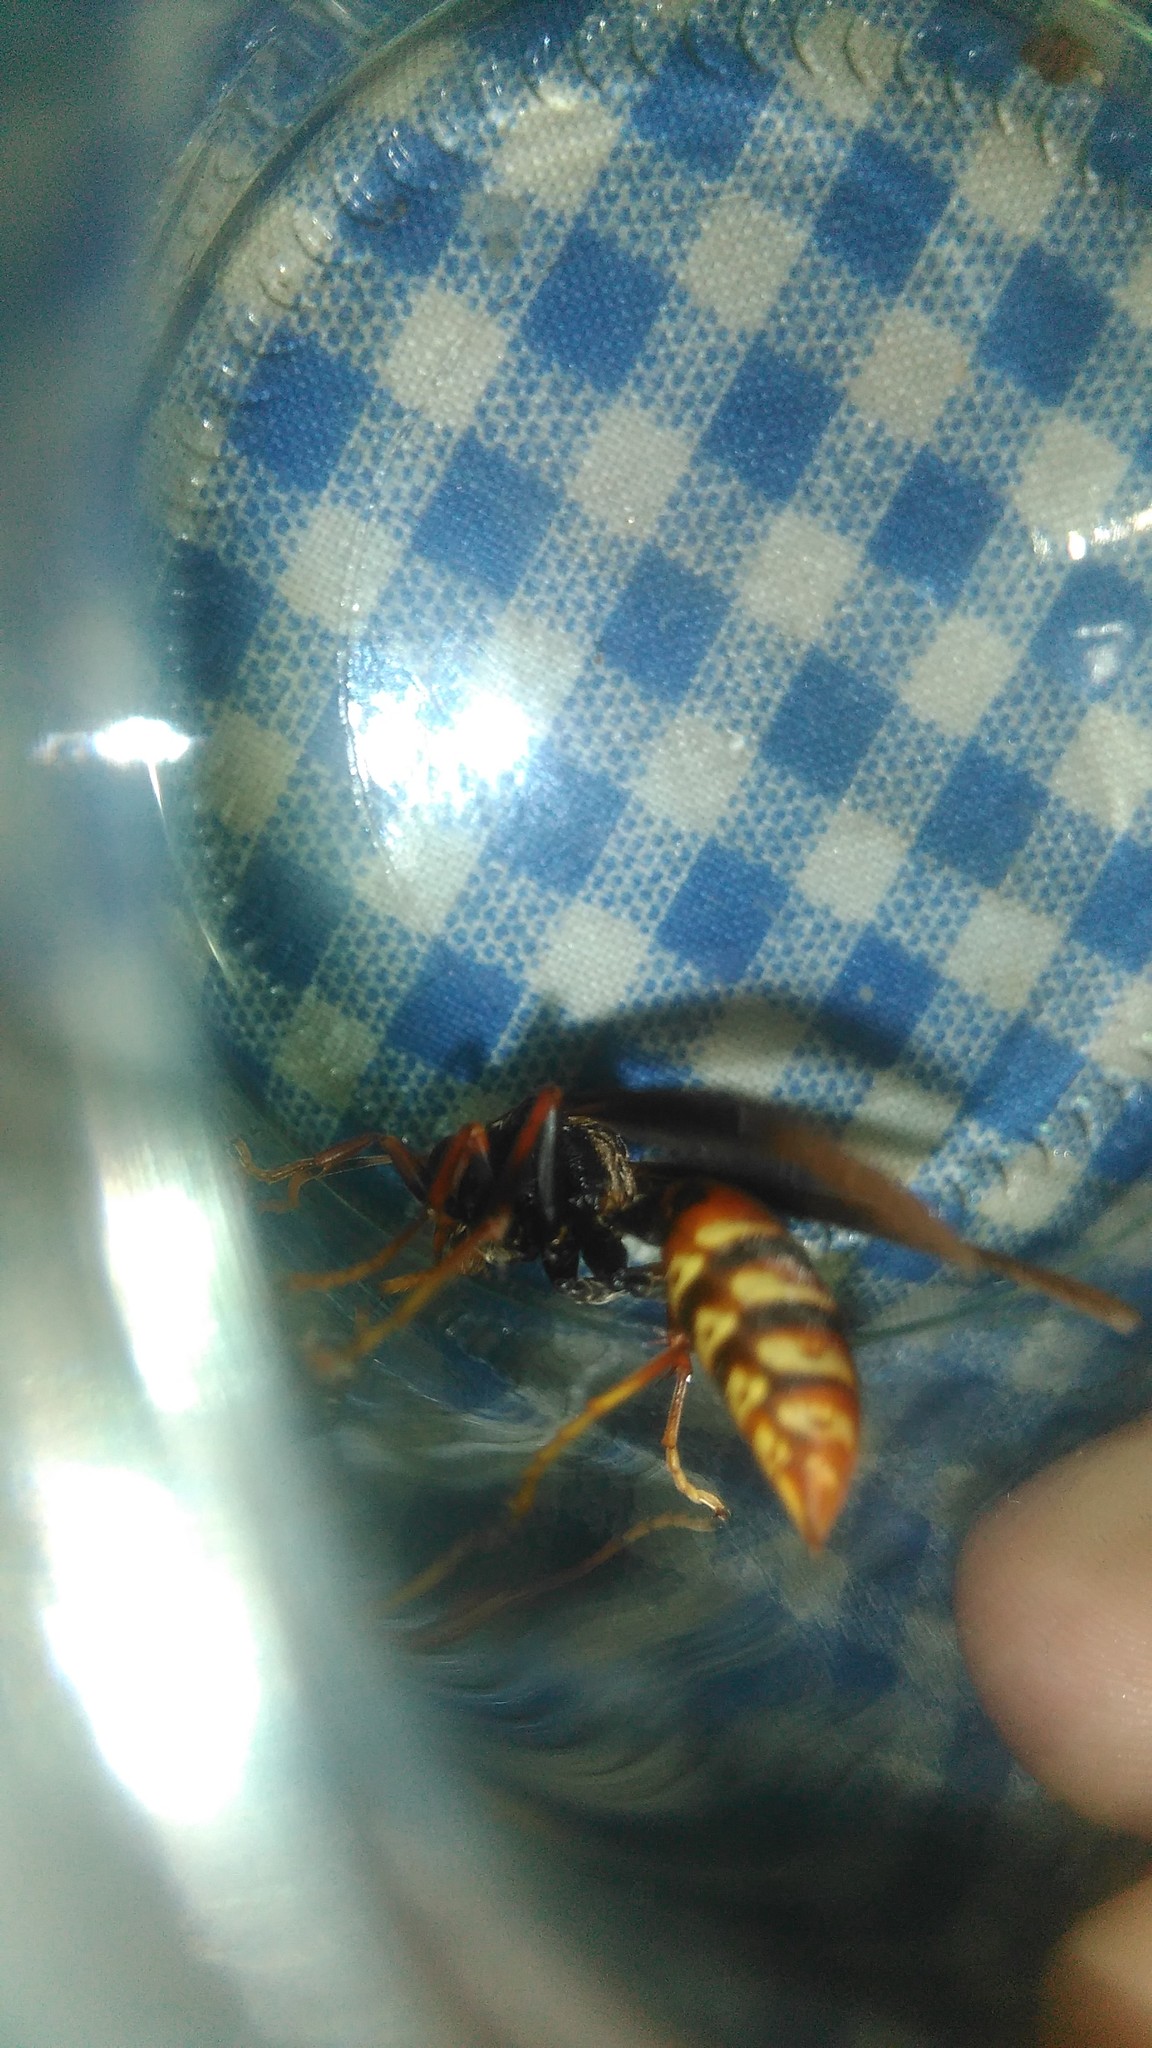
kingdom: Animalia
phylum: Arthropoda
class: Insecta
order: Hymenoptera
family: Pompilidae
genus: Aphanilopterus
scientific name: Aphanilopterus
